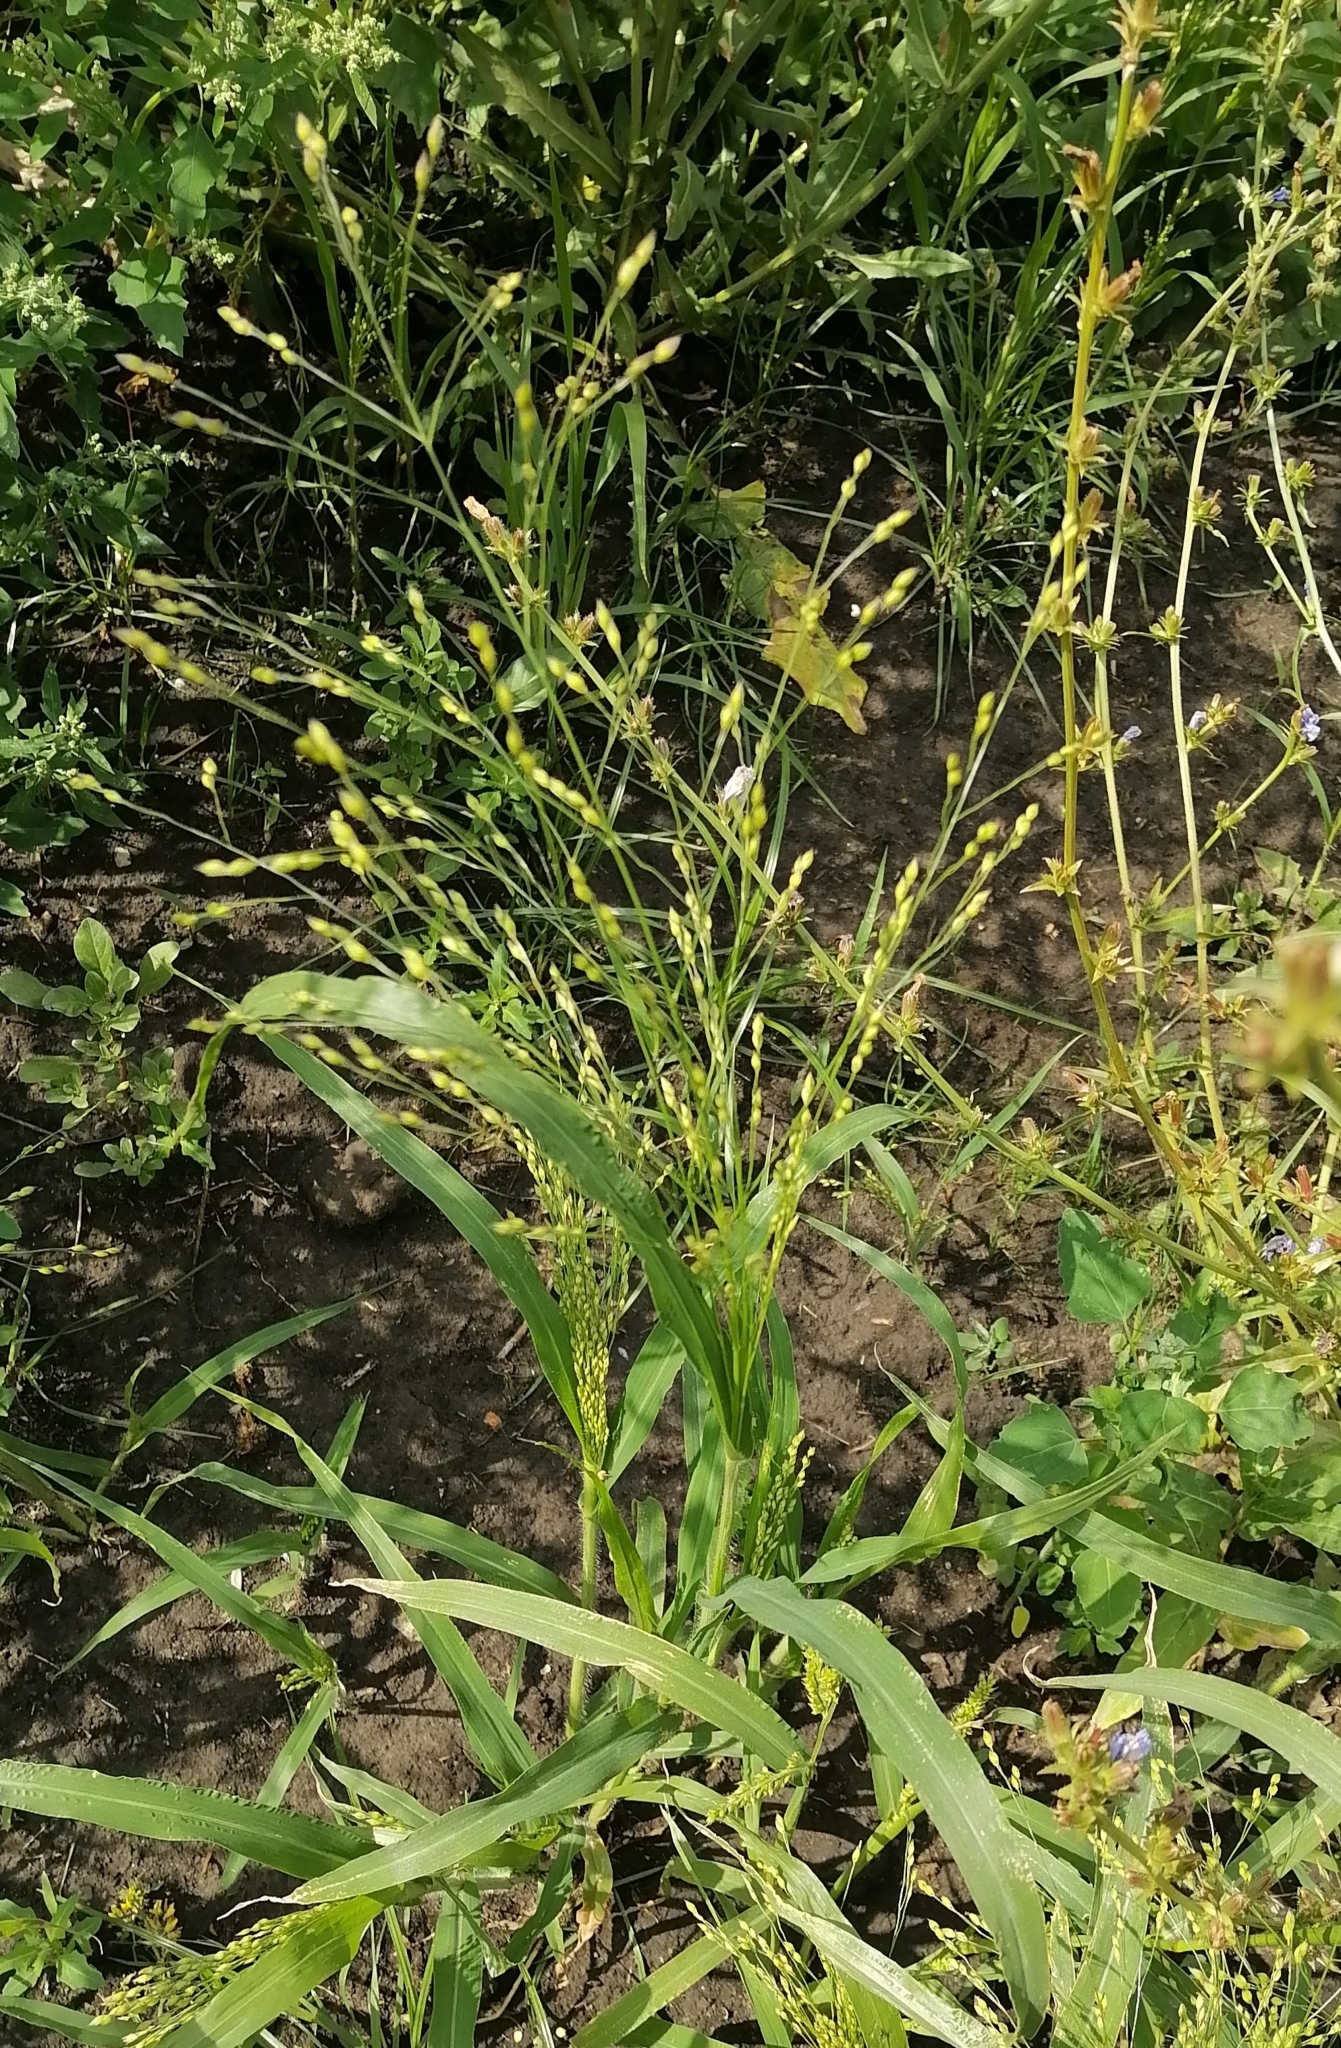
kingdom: Plantae
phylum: Tracheophyta
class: Liliopsida
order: Poales
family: Poaceae
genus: Panicum
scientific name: Panicum miliaceum
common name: Common millet
